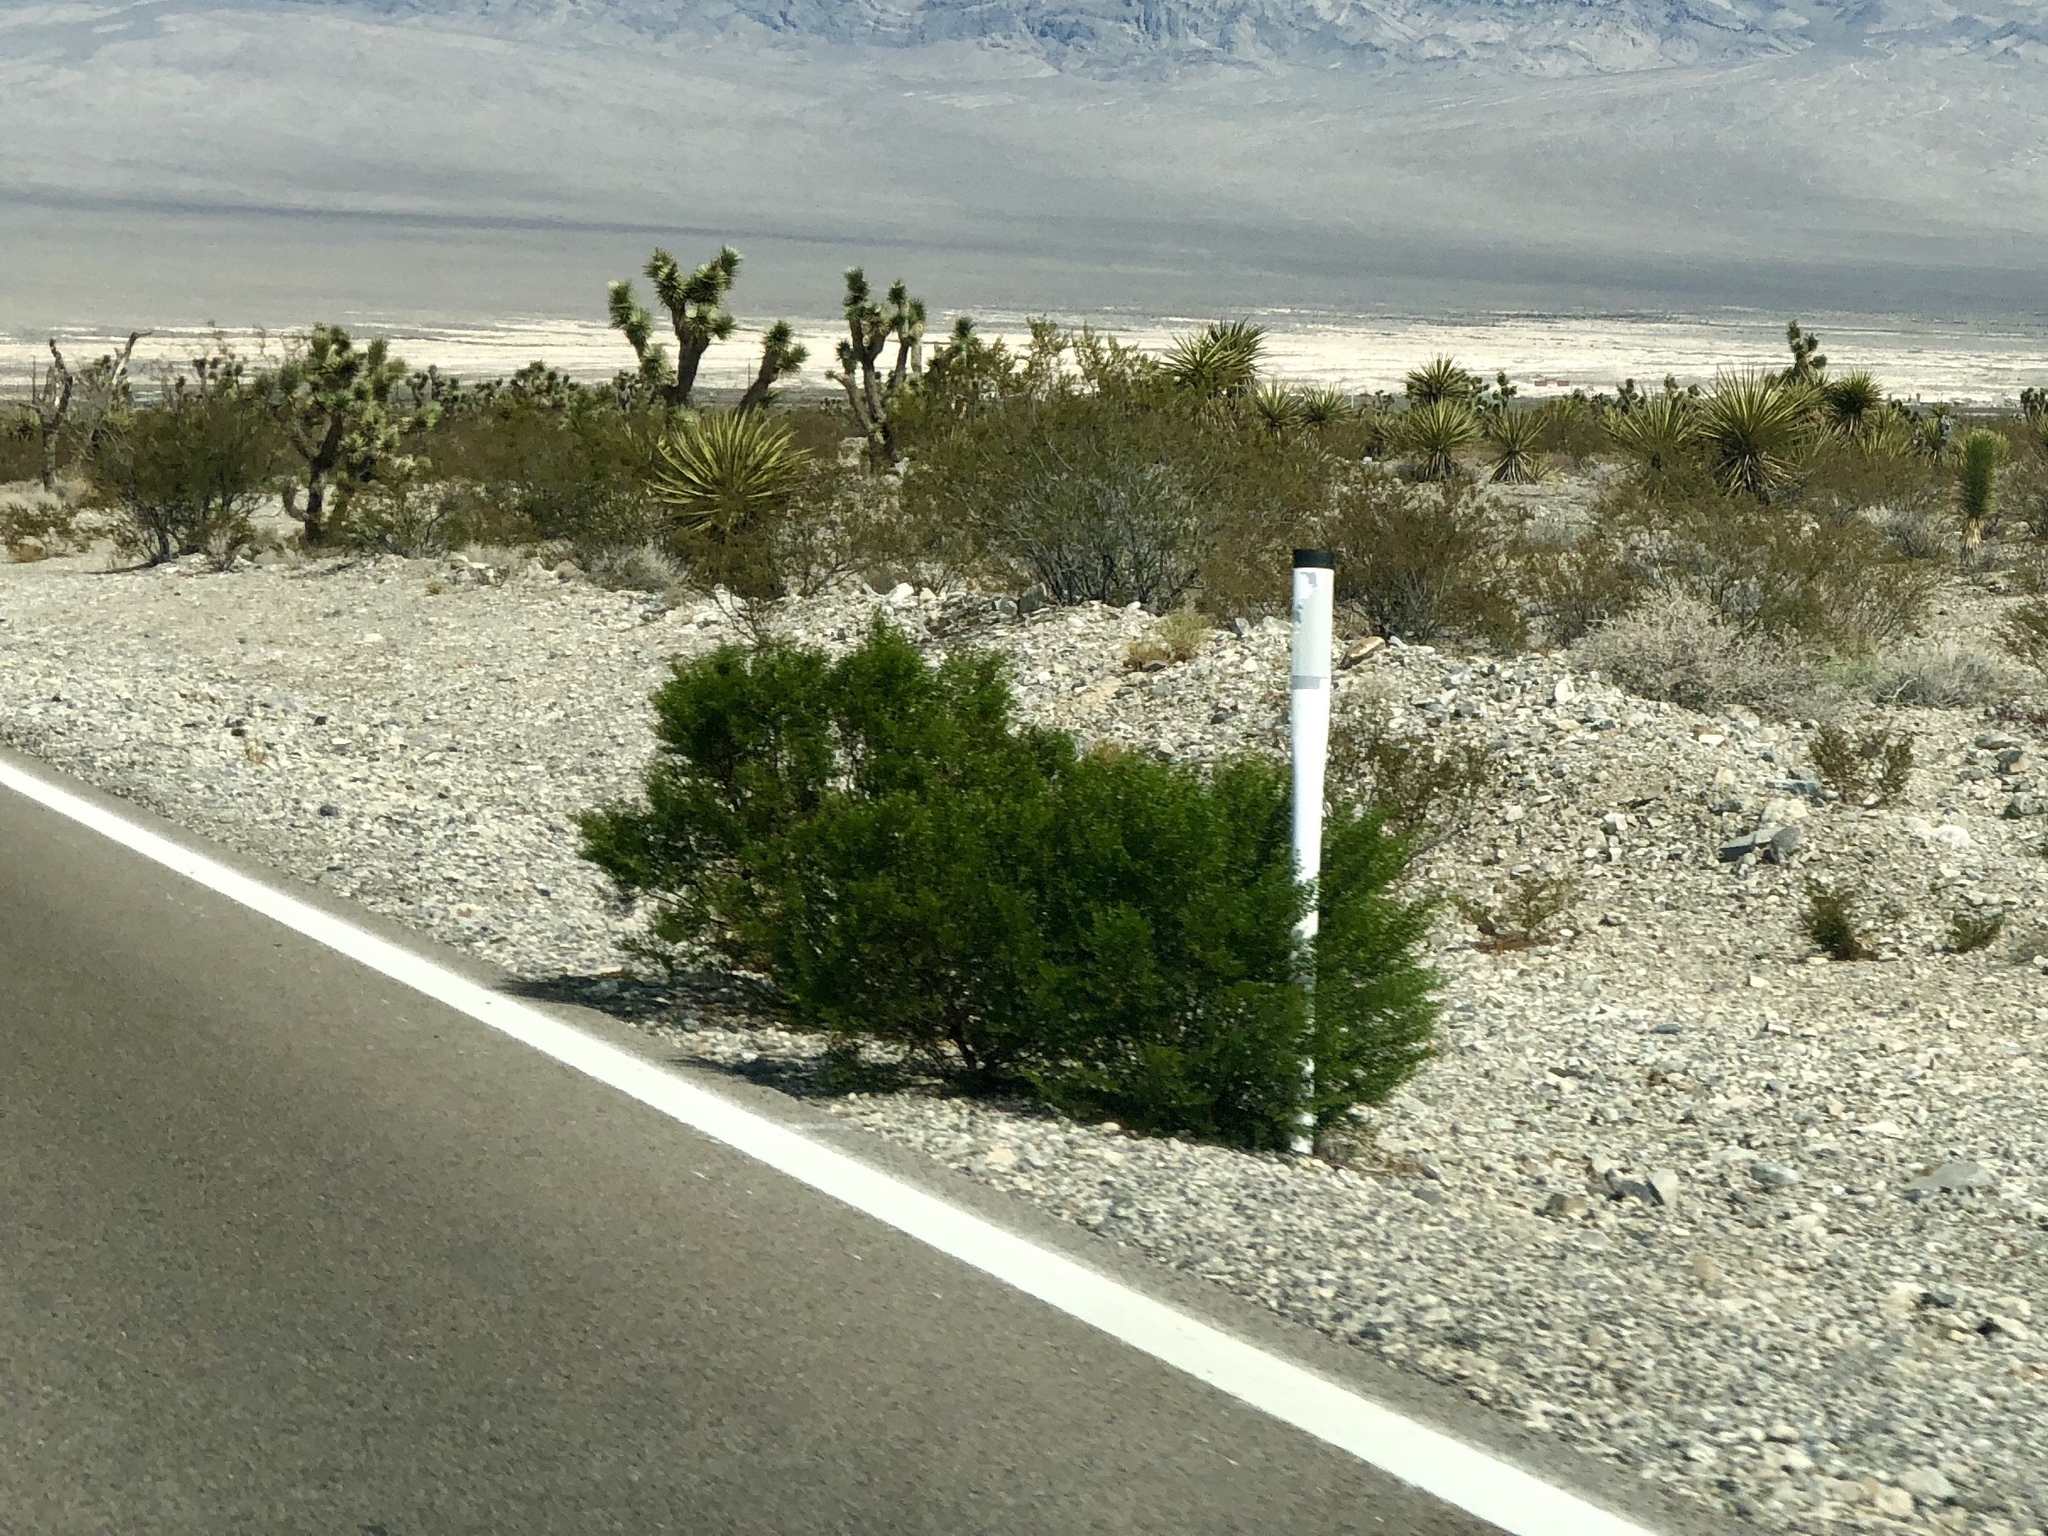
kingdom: Plantae
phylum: Tracheophyta
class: Magnoliopsida
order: Zygophyllales
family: Zygophyllaceae
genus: Larrea
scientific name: Larrea tridentata
